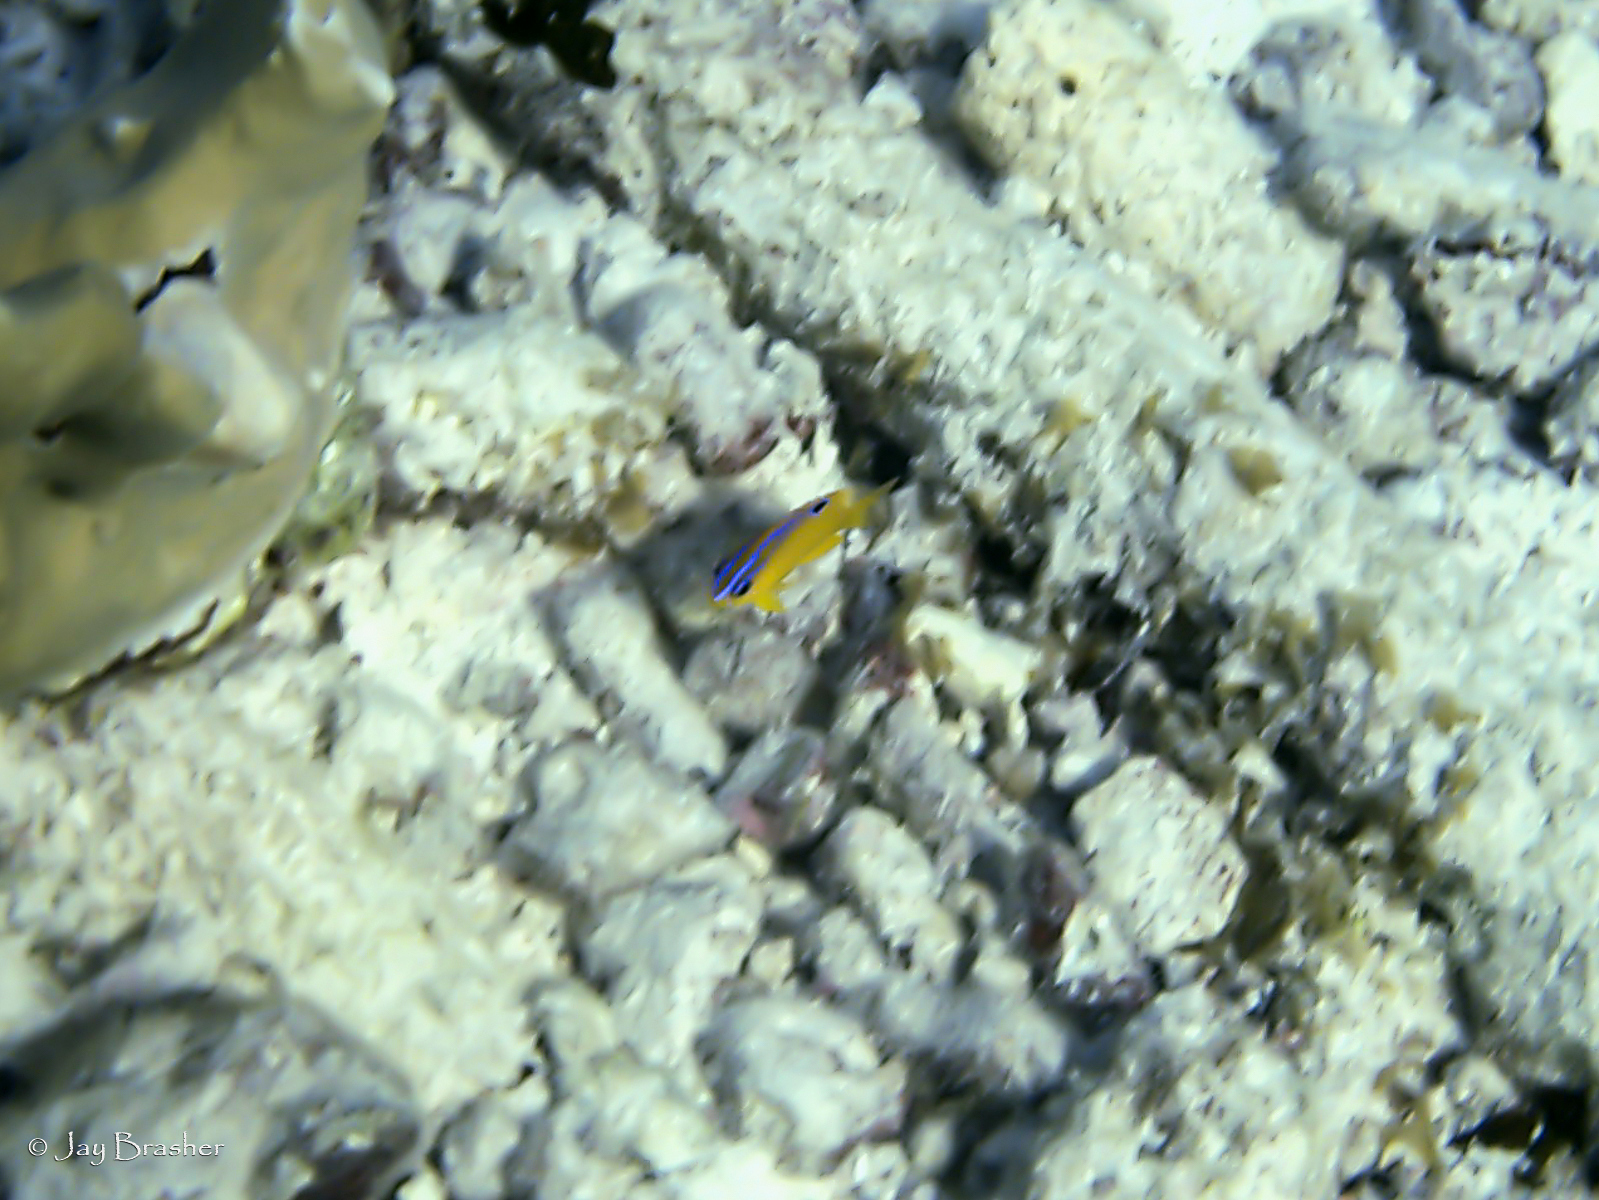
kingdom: Animalia
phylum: Chordata
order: Perciformes
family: Pomacentridae
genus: Stegastes
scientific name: Stegastes diencaeus
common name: Longfin damselfish
